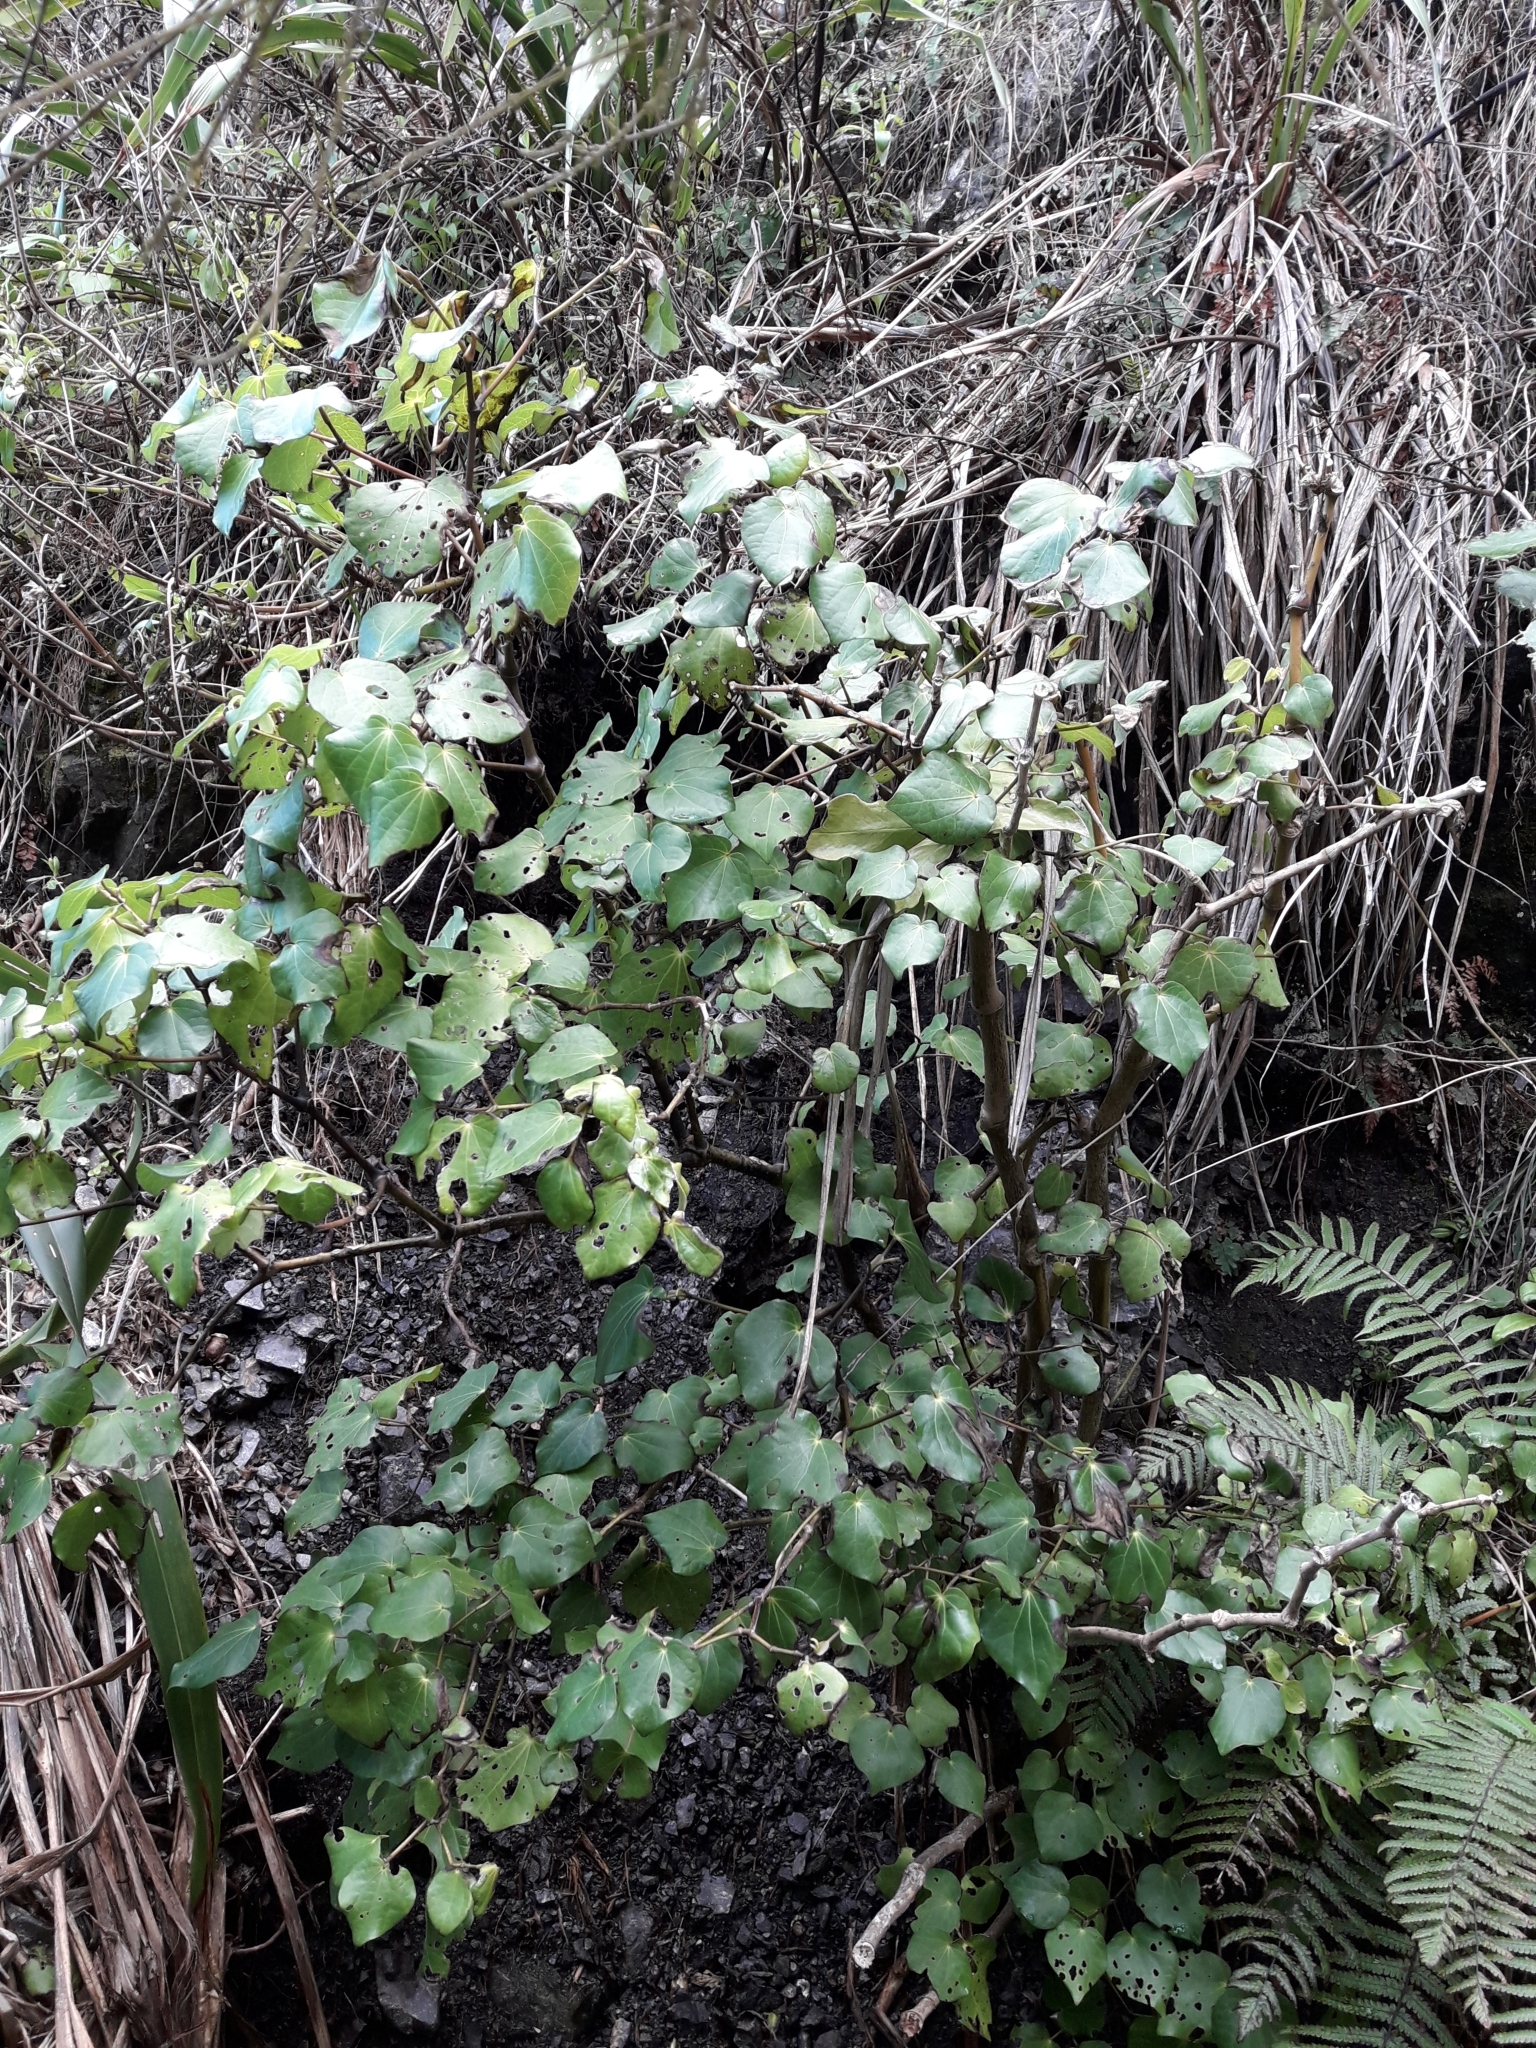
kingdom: Plantae
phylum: Tracheophyta
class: Magnoliopsida
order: Piperales
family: Piperaceae
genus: Macropiper
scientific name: Macropiper excelsum
